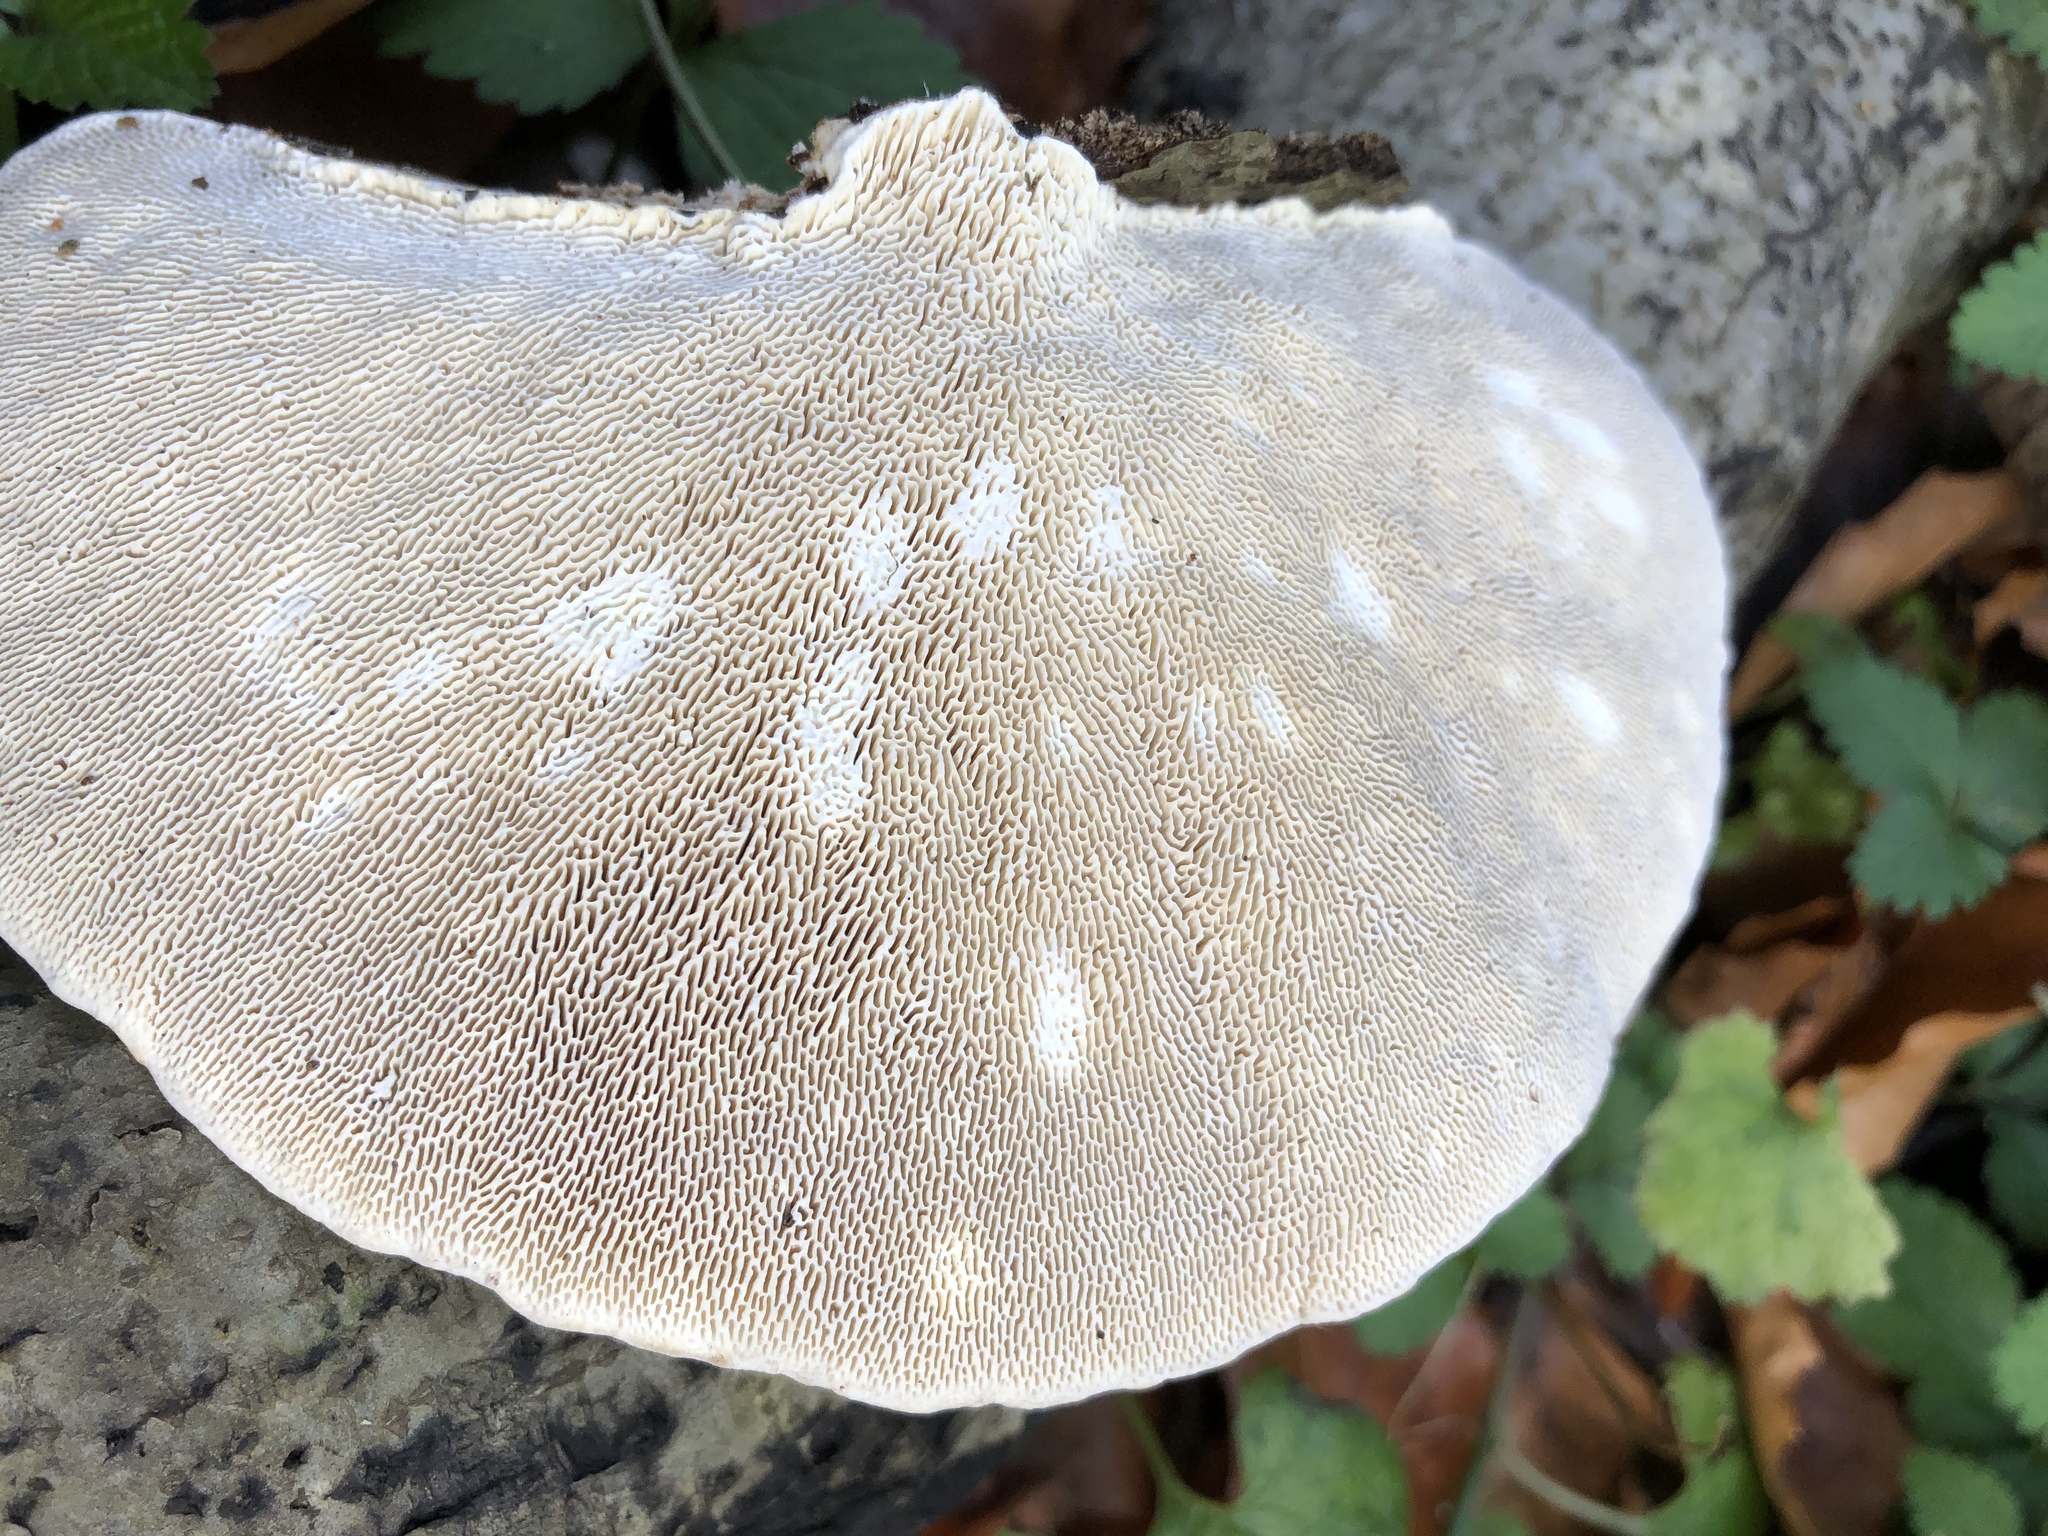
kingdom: Fungi
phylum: Basidiomycota
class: Agaricomycetes
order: Polyporales
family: Polyporaceae
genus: Trametes
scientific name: Trametes gibbosa
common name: Lumpy bracket
